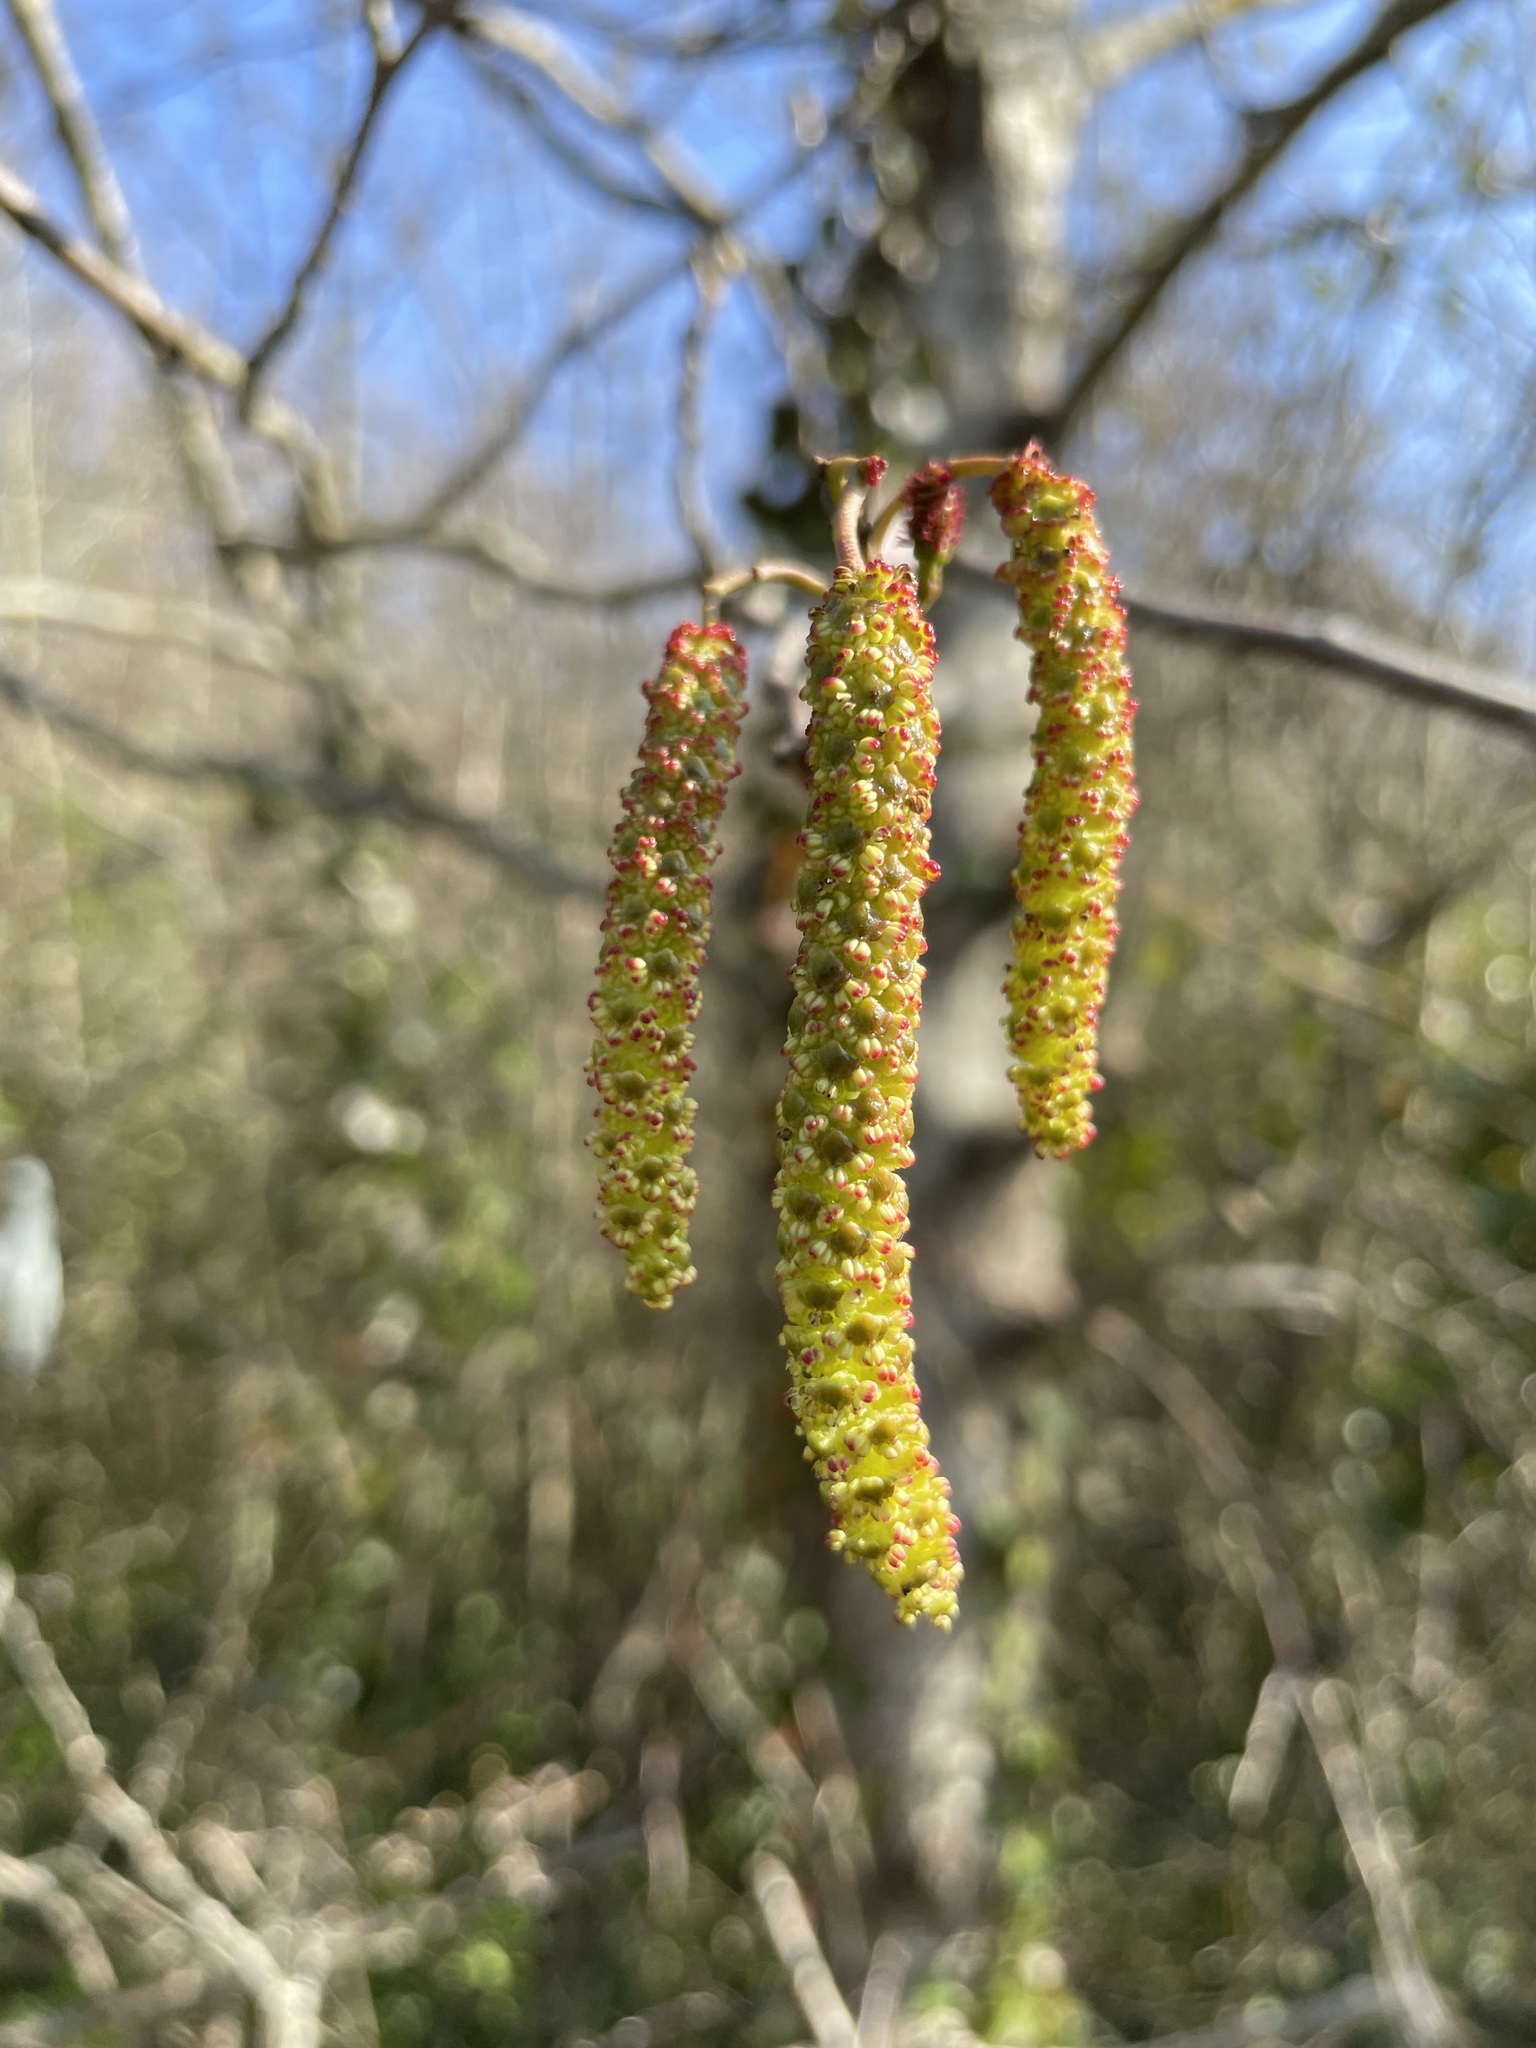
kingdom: Plantae
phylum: Tracheophyta
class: Magnoliopsida
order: Fagales
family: Betulaceae
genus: Corylus
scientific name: Corylus avellana
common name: European hazel
